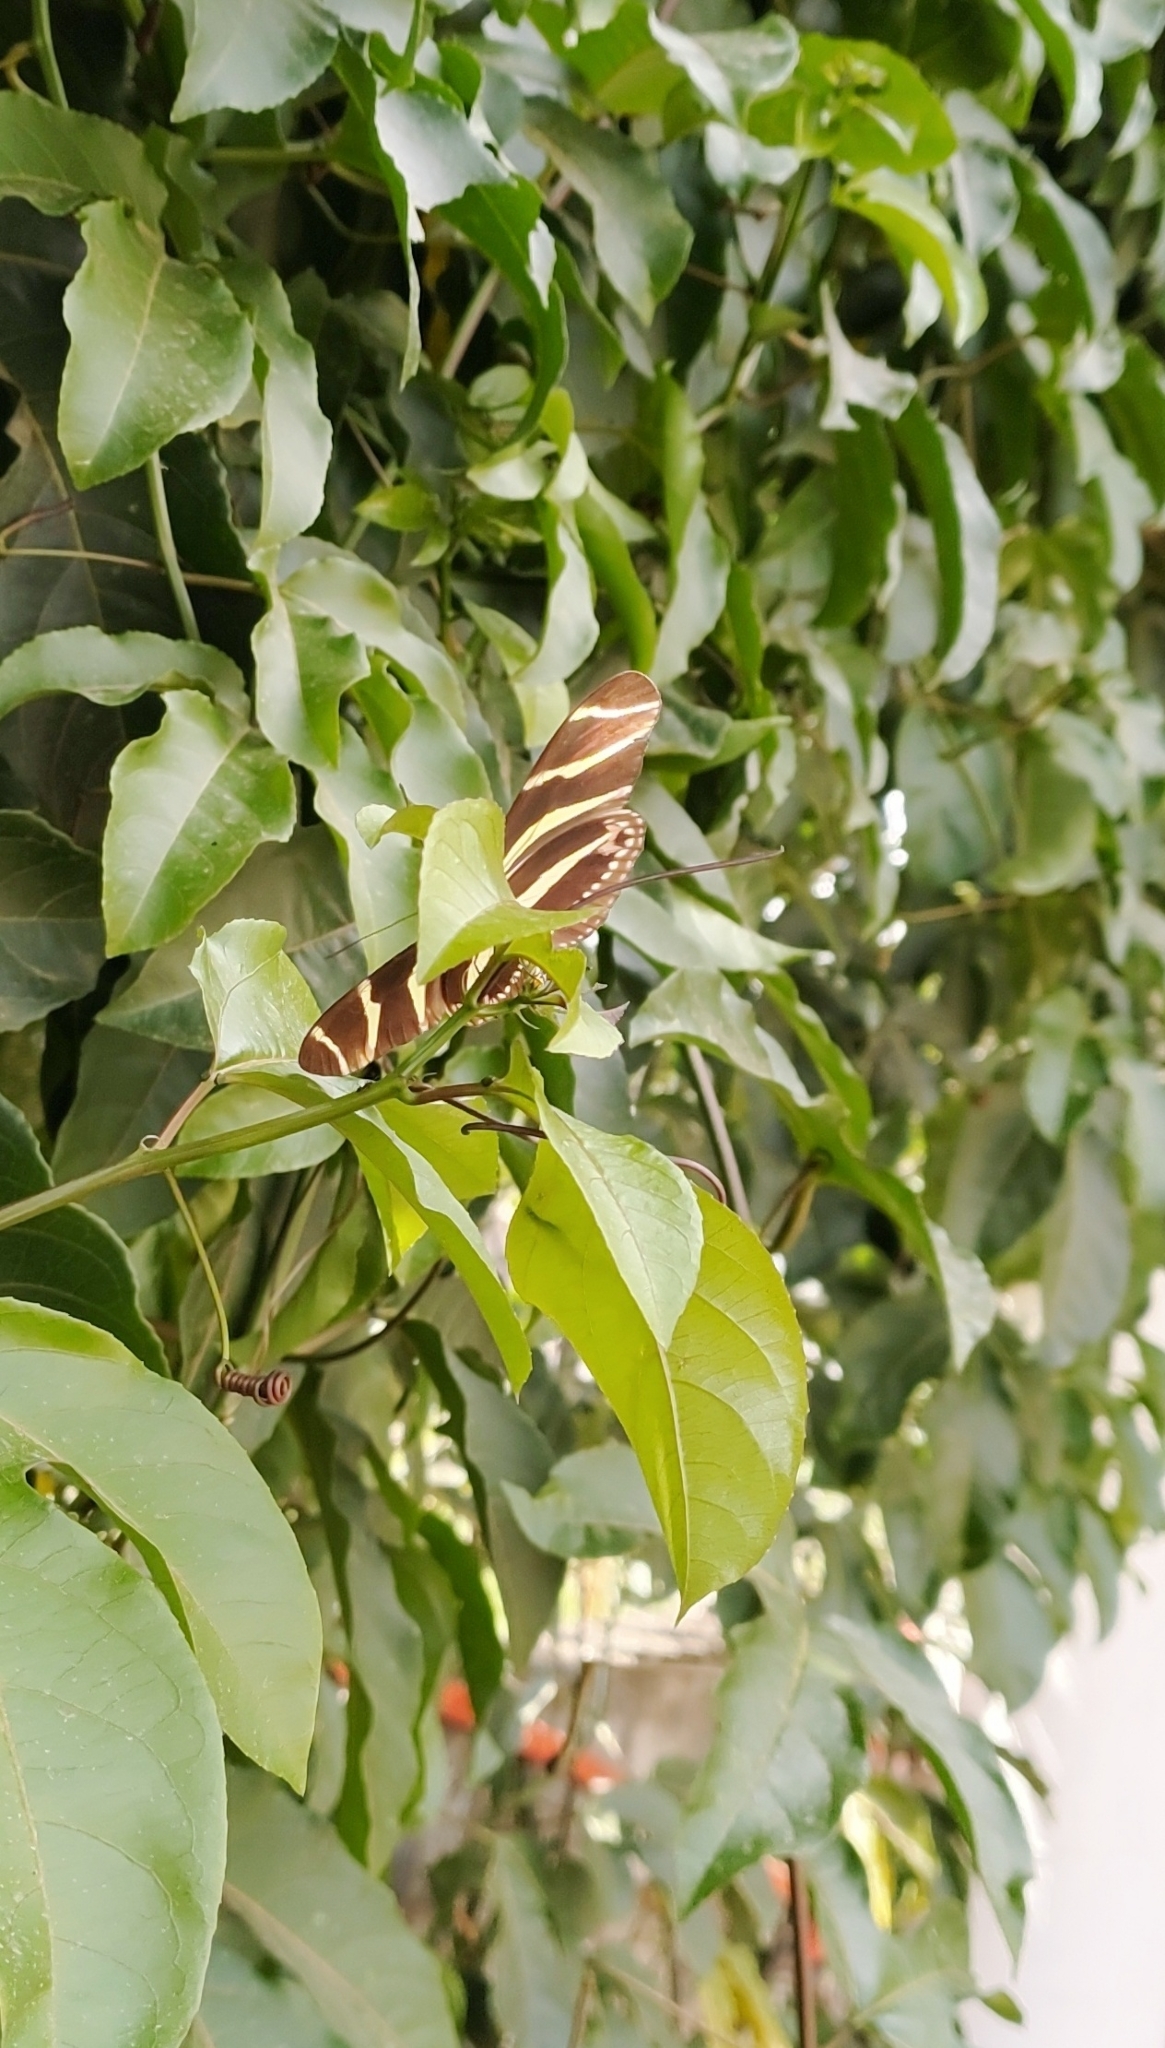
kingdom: Animalia
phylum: Arthropoda
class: Insecta
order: Lepidoptera
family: Nymphalidae
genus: Heliconius
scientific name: Heliconius charithonia
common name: Zebra long wing
